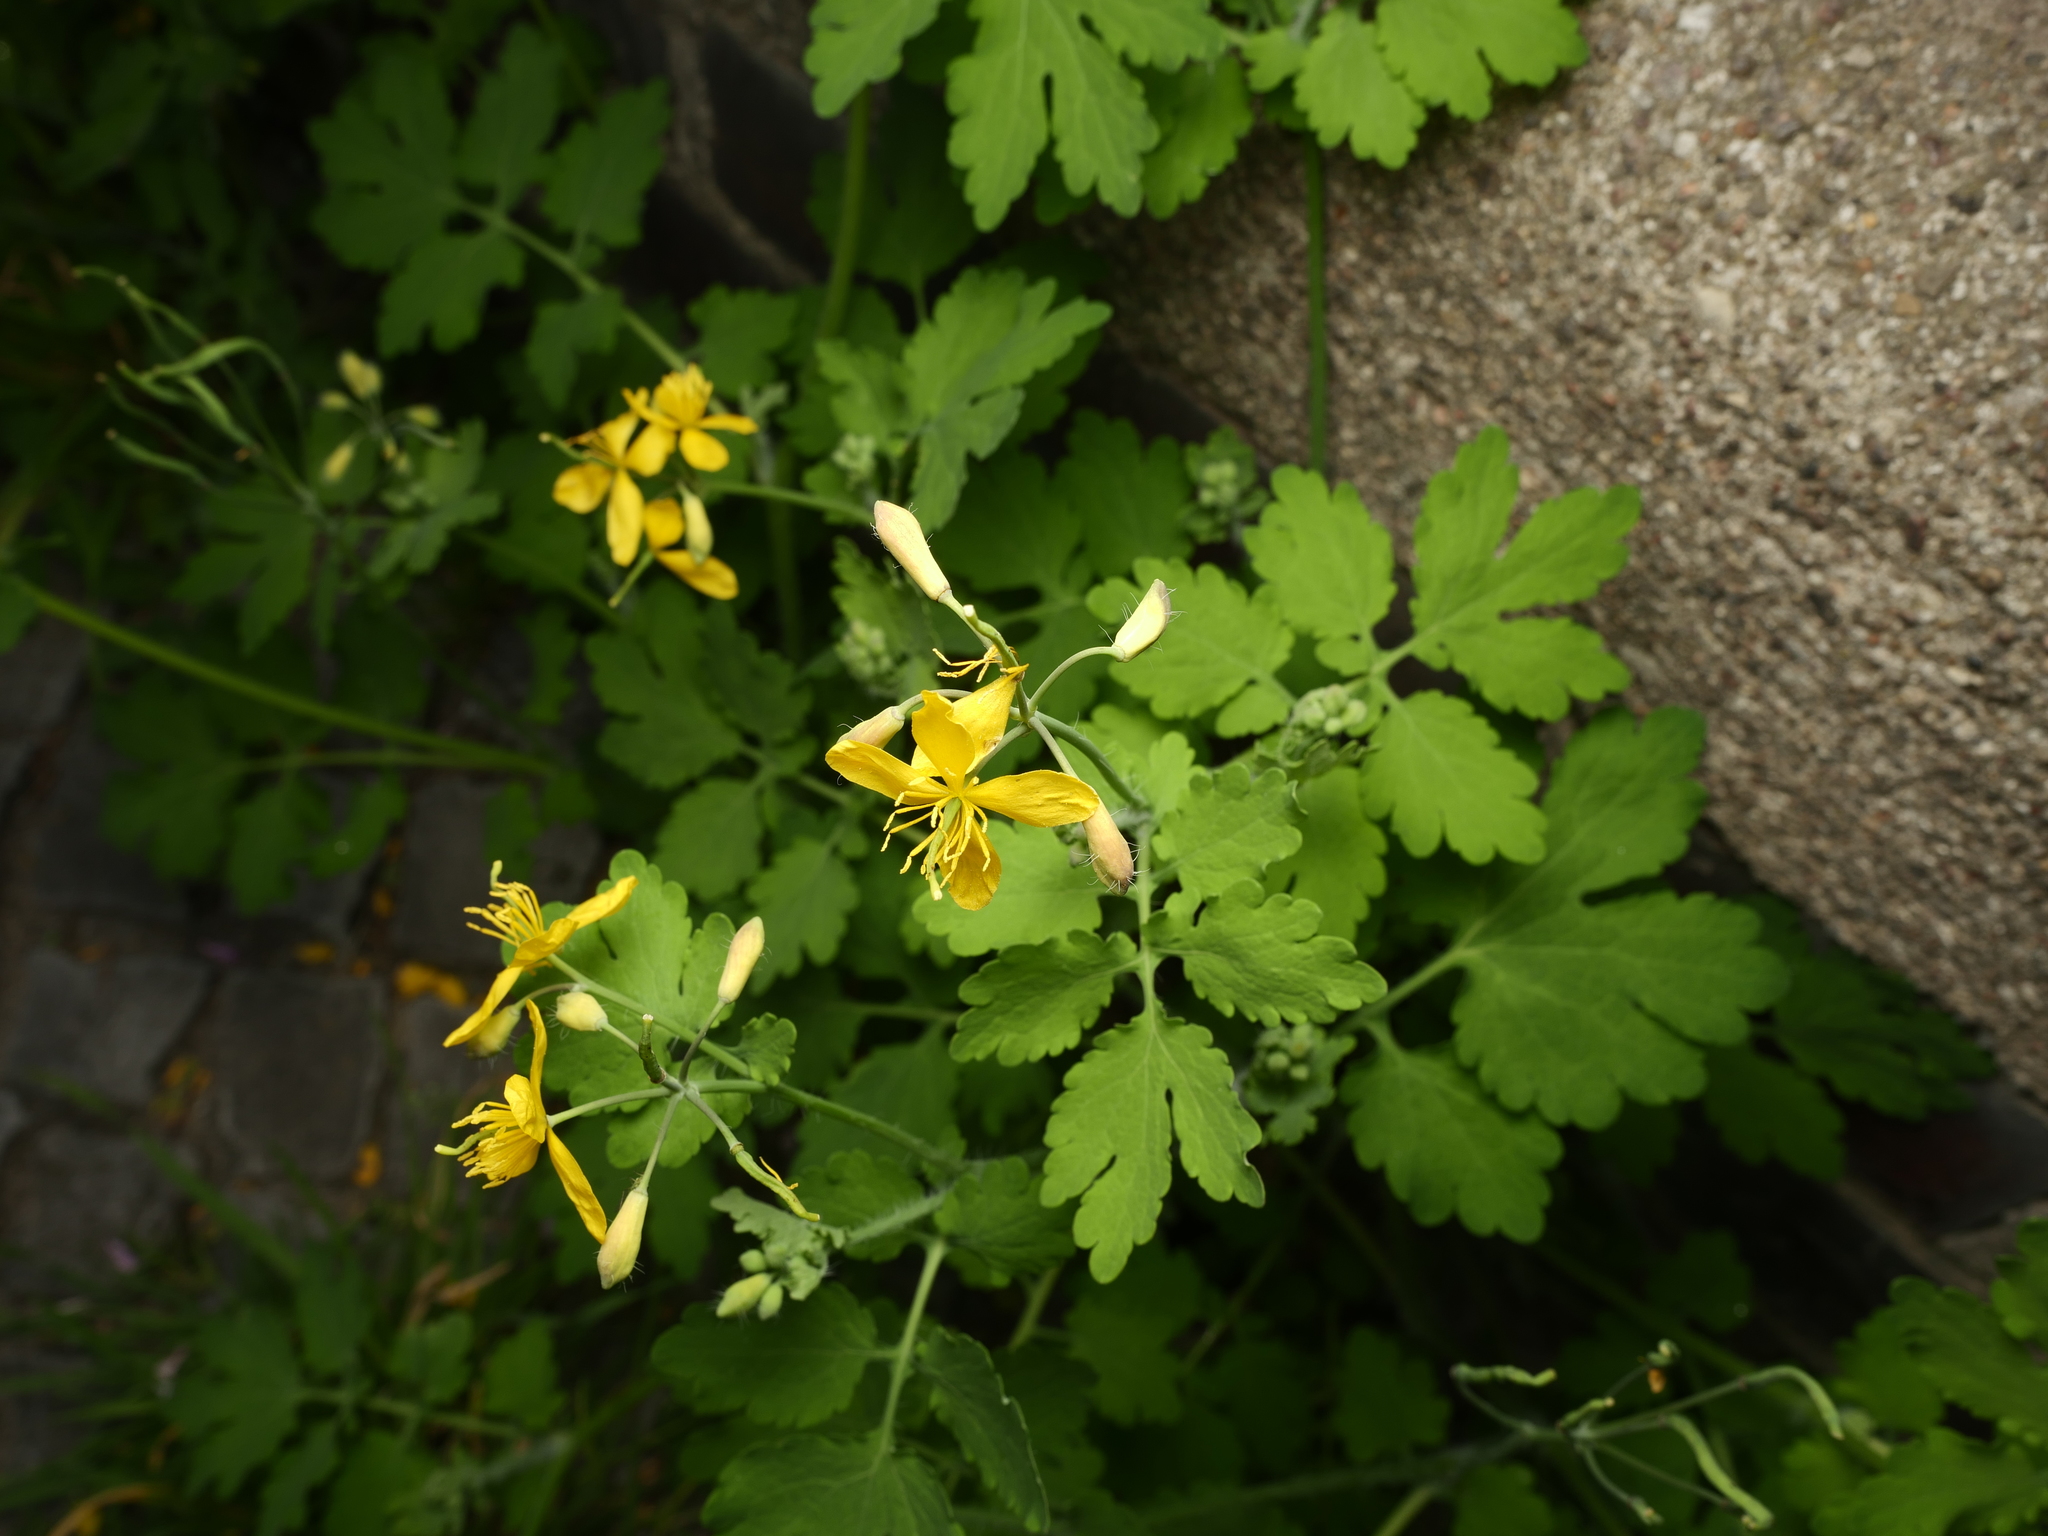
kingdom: Plantae
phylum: Tracheophyta
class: Magnoliopsida
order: Ranunculales
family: Papaveraceae
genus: Chelidonium
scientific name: Chelidonium majus
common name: Greater celandine
